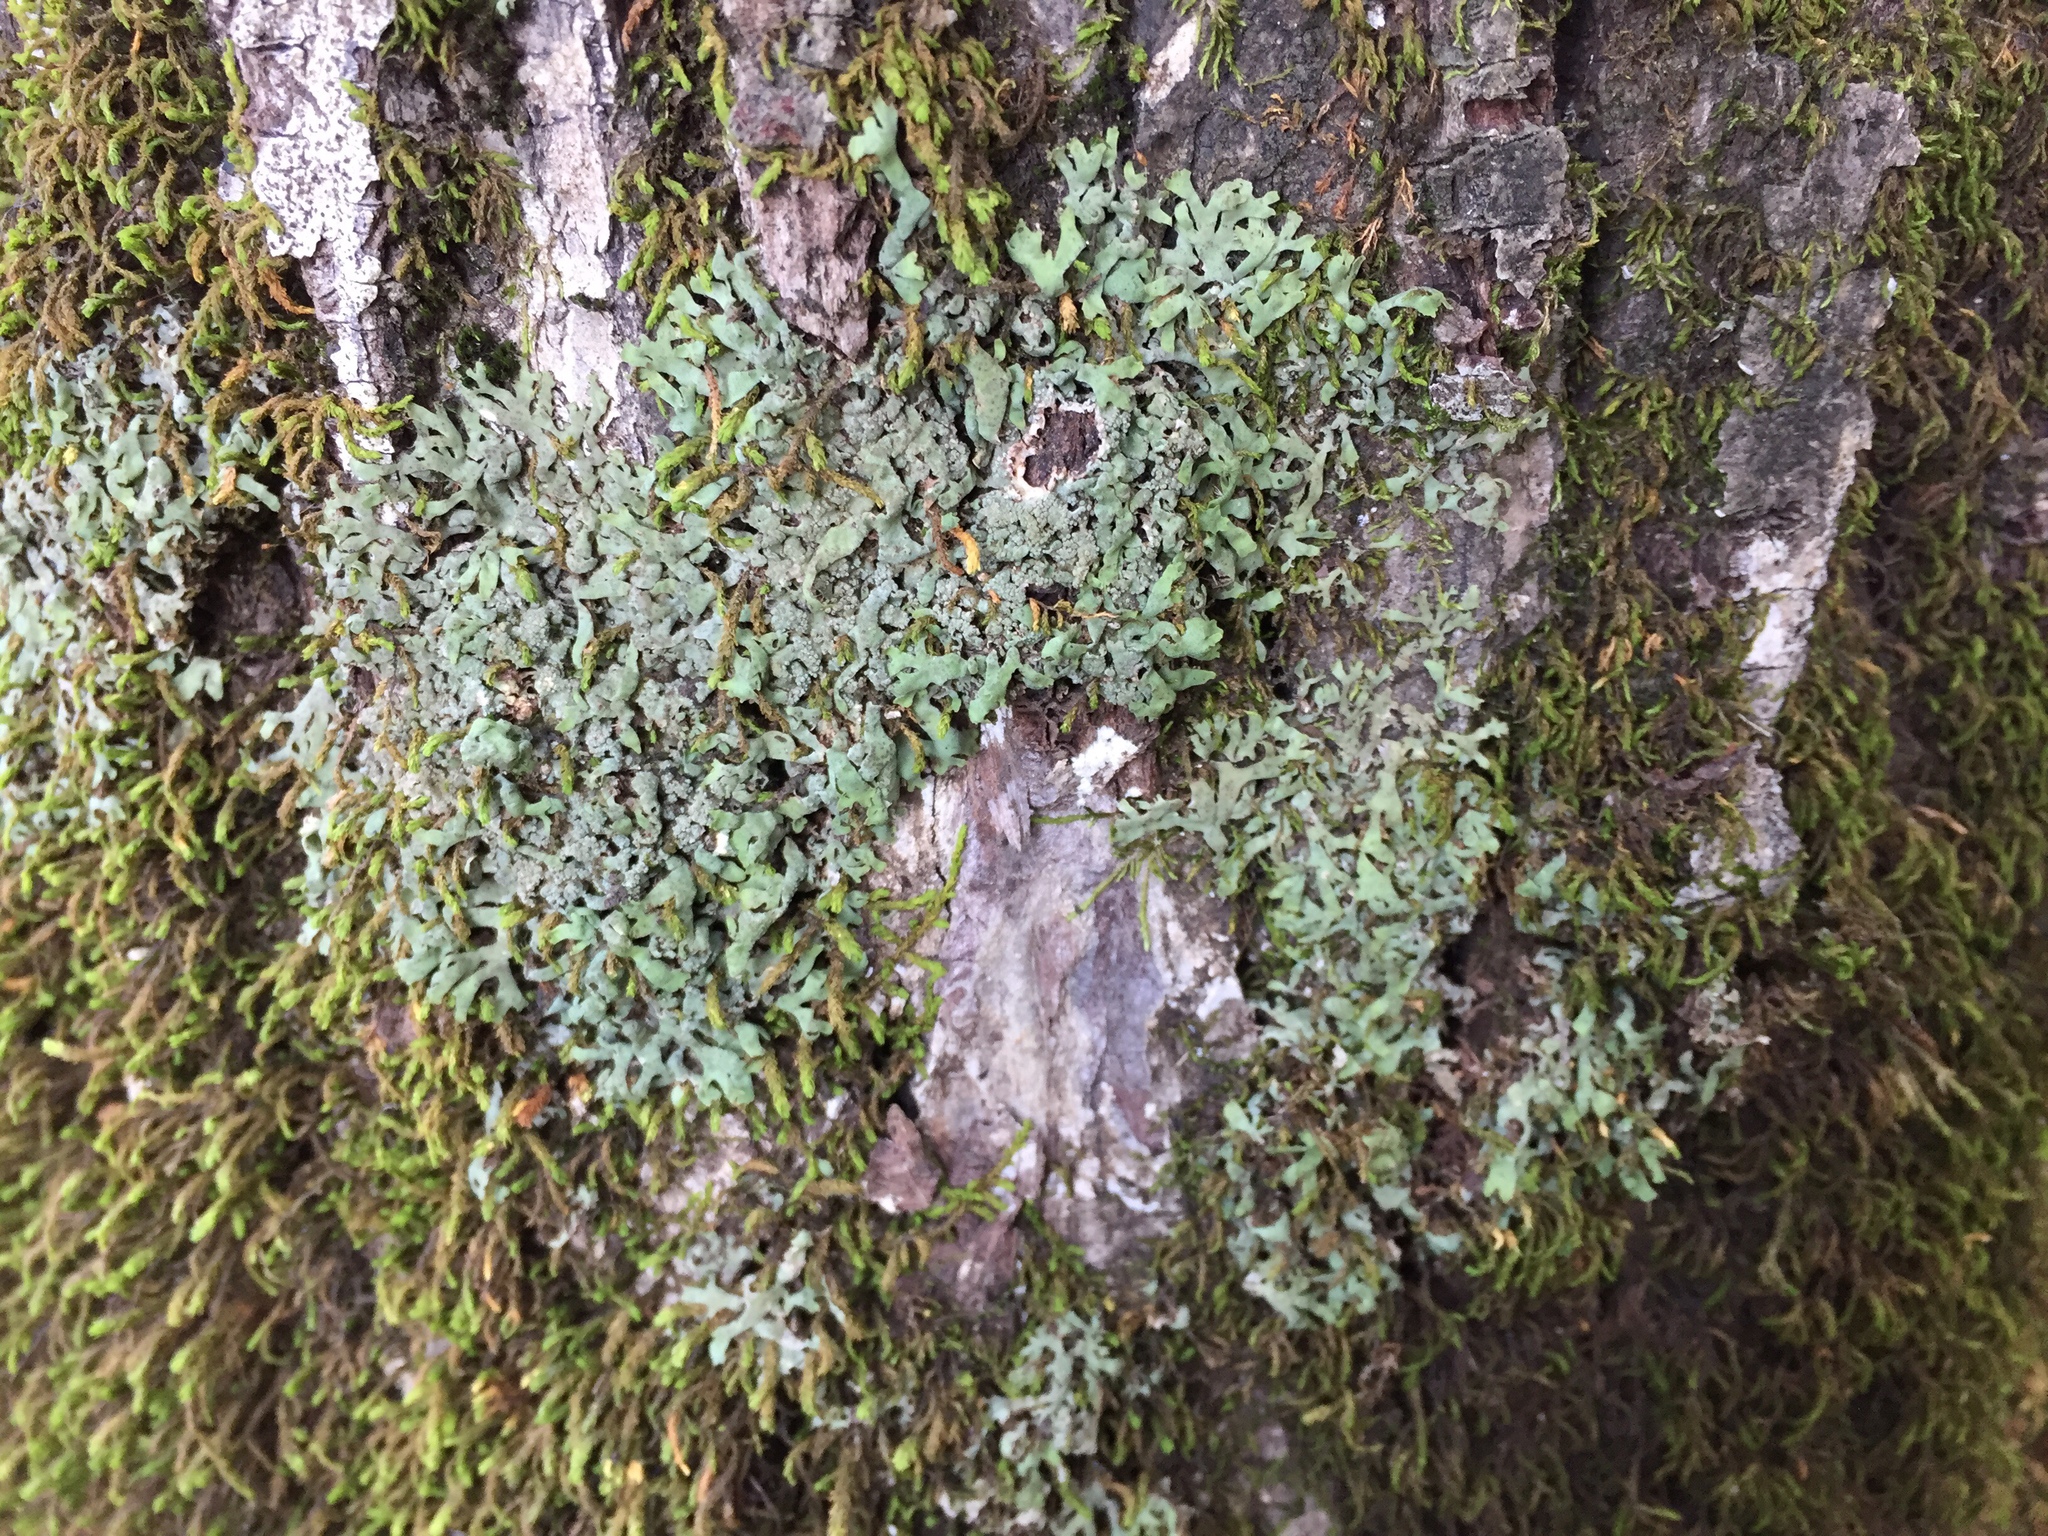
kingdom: Fungi
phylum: Ascomycota
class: Lecanoromycetes
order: Caliciales
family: Physciaceae
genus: Physcia
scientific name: Physcia leana
